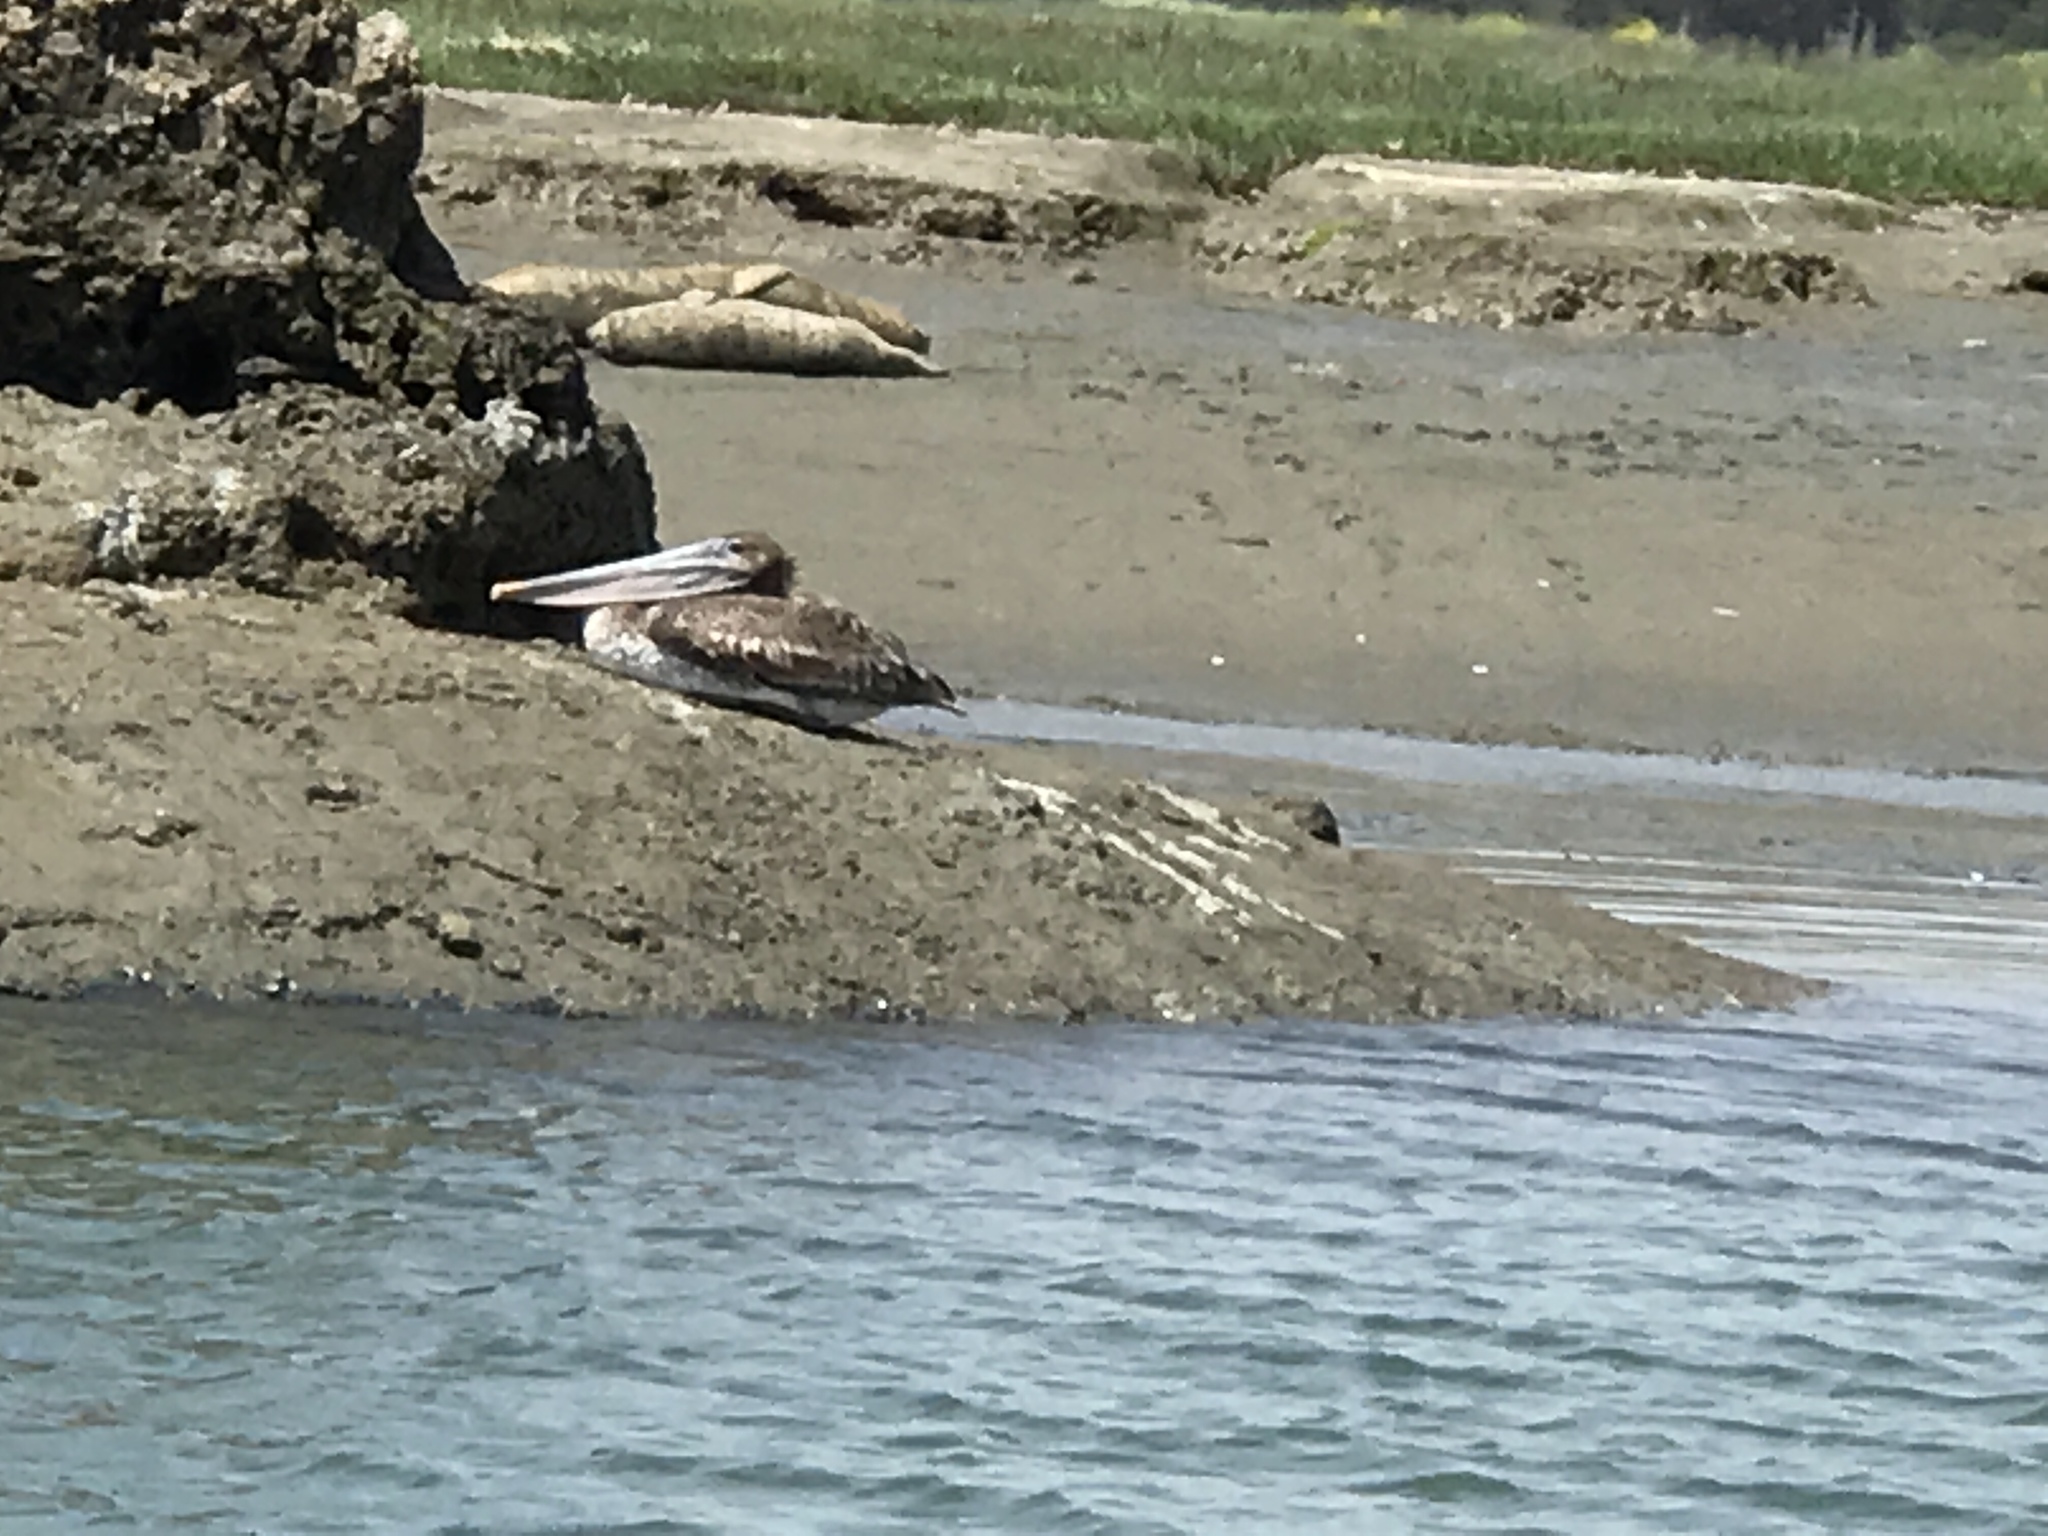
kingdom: Animalia
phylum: Chordata
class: Aves
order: Pelecaniformes
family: Pelecanidae
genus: Pelecanus
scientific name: Pelecanus occidentalis
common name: Brown pelican
